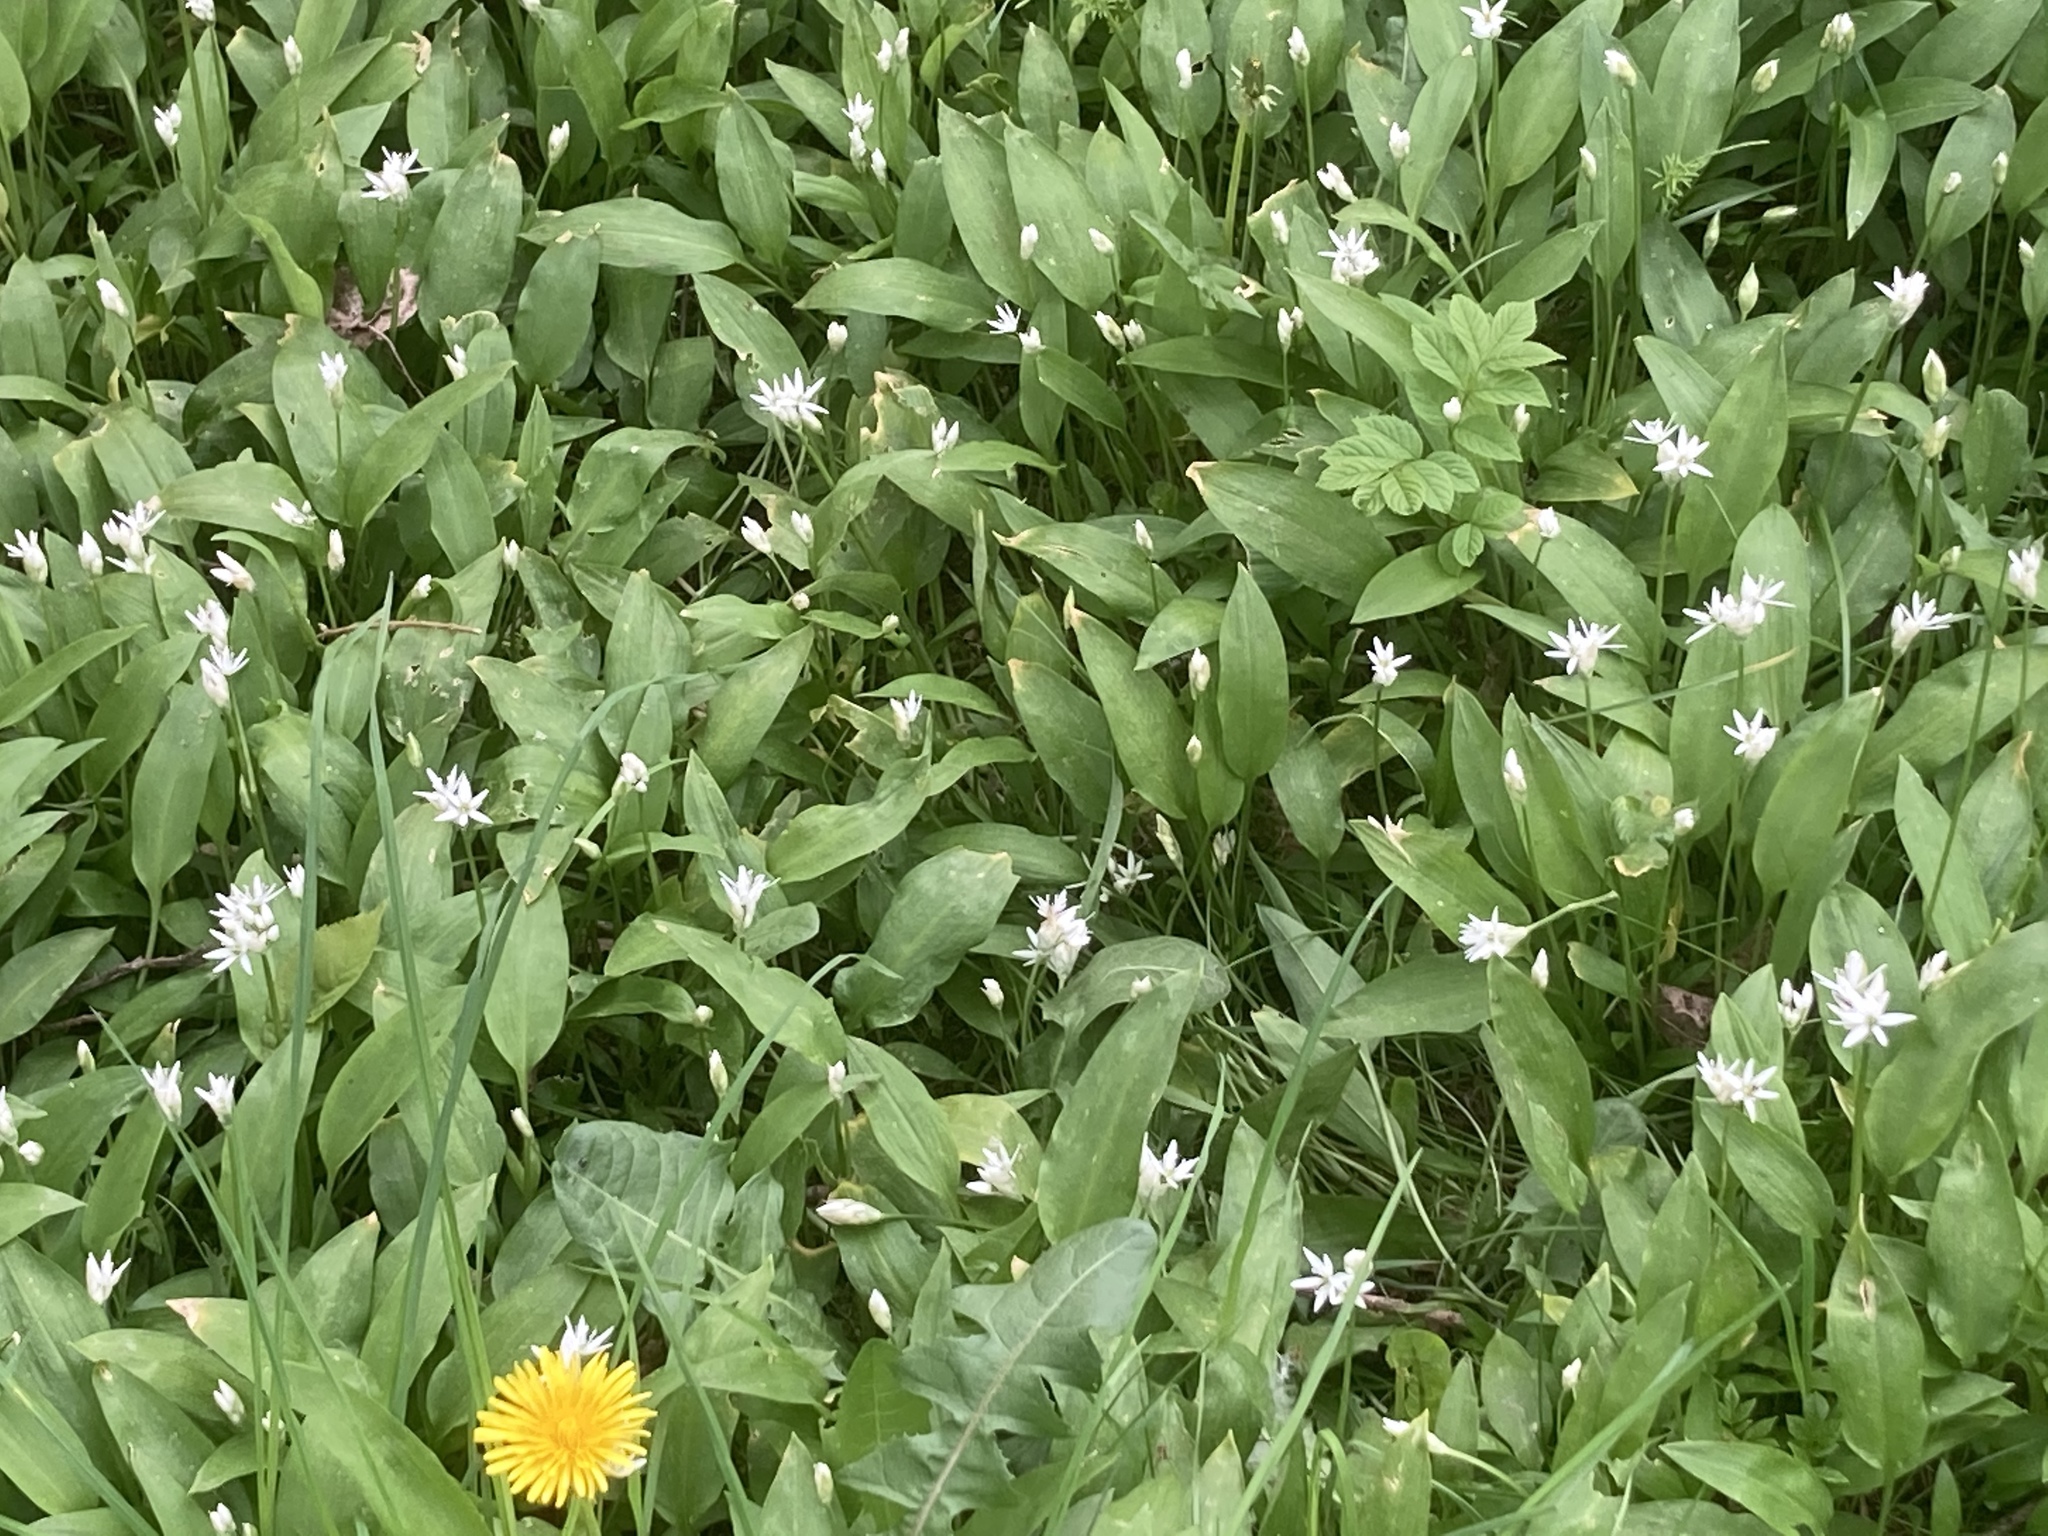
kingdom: Plantae
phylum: Tracheophyta
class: Liliopsida
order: Asparagales
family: Amaryllidaceae
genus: Allium
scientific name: Allium ursinum
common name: Ramsons
